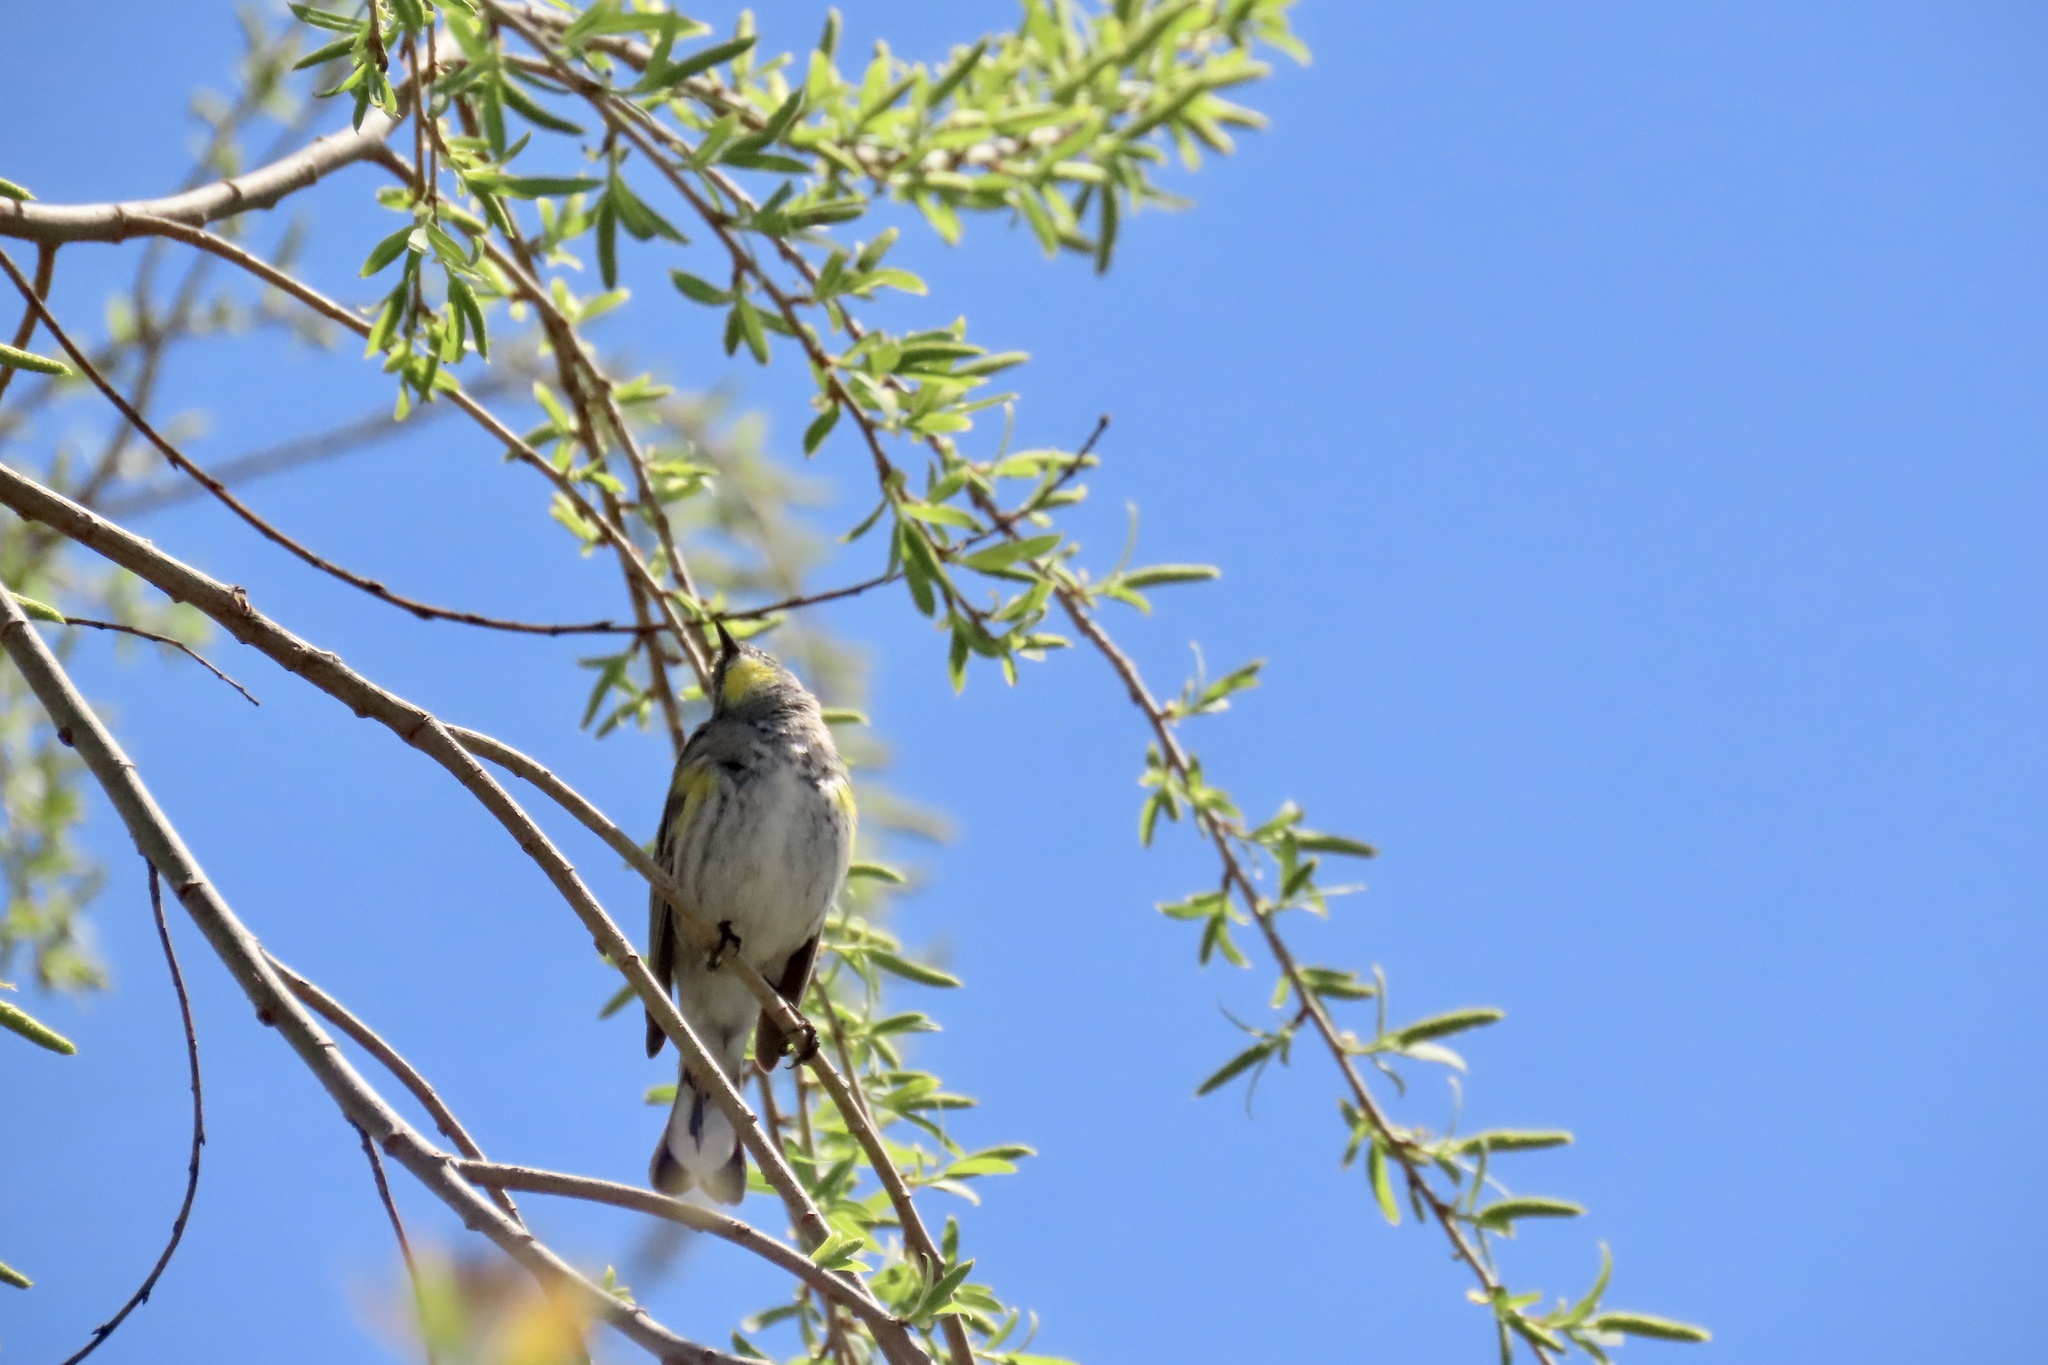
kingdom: Animalia
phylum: Chordata
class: Aves
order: Passeriformes
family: Parulidae
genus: Setophaga
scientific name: Setophaga coronata
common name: Myrtle warbler
